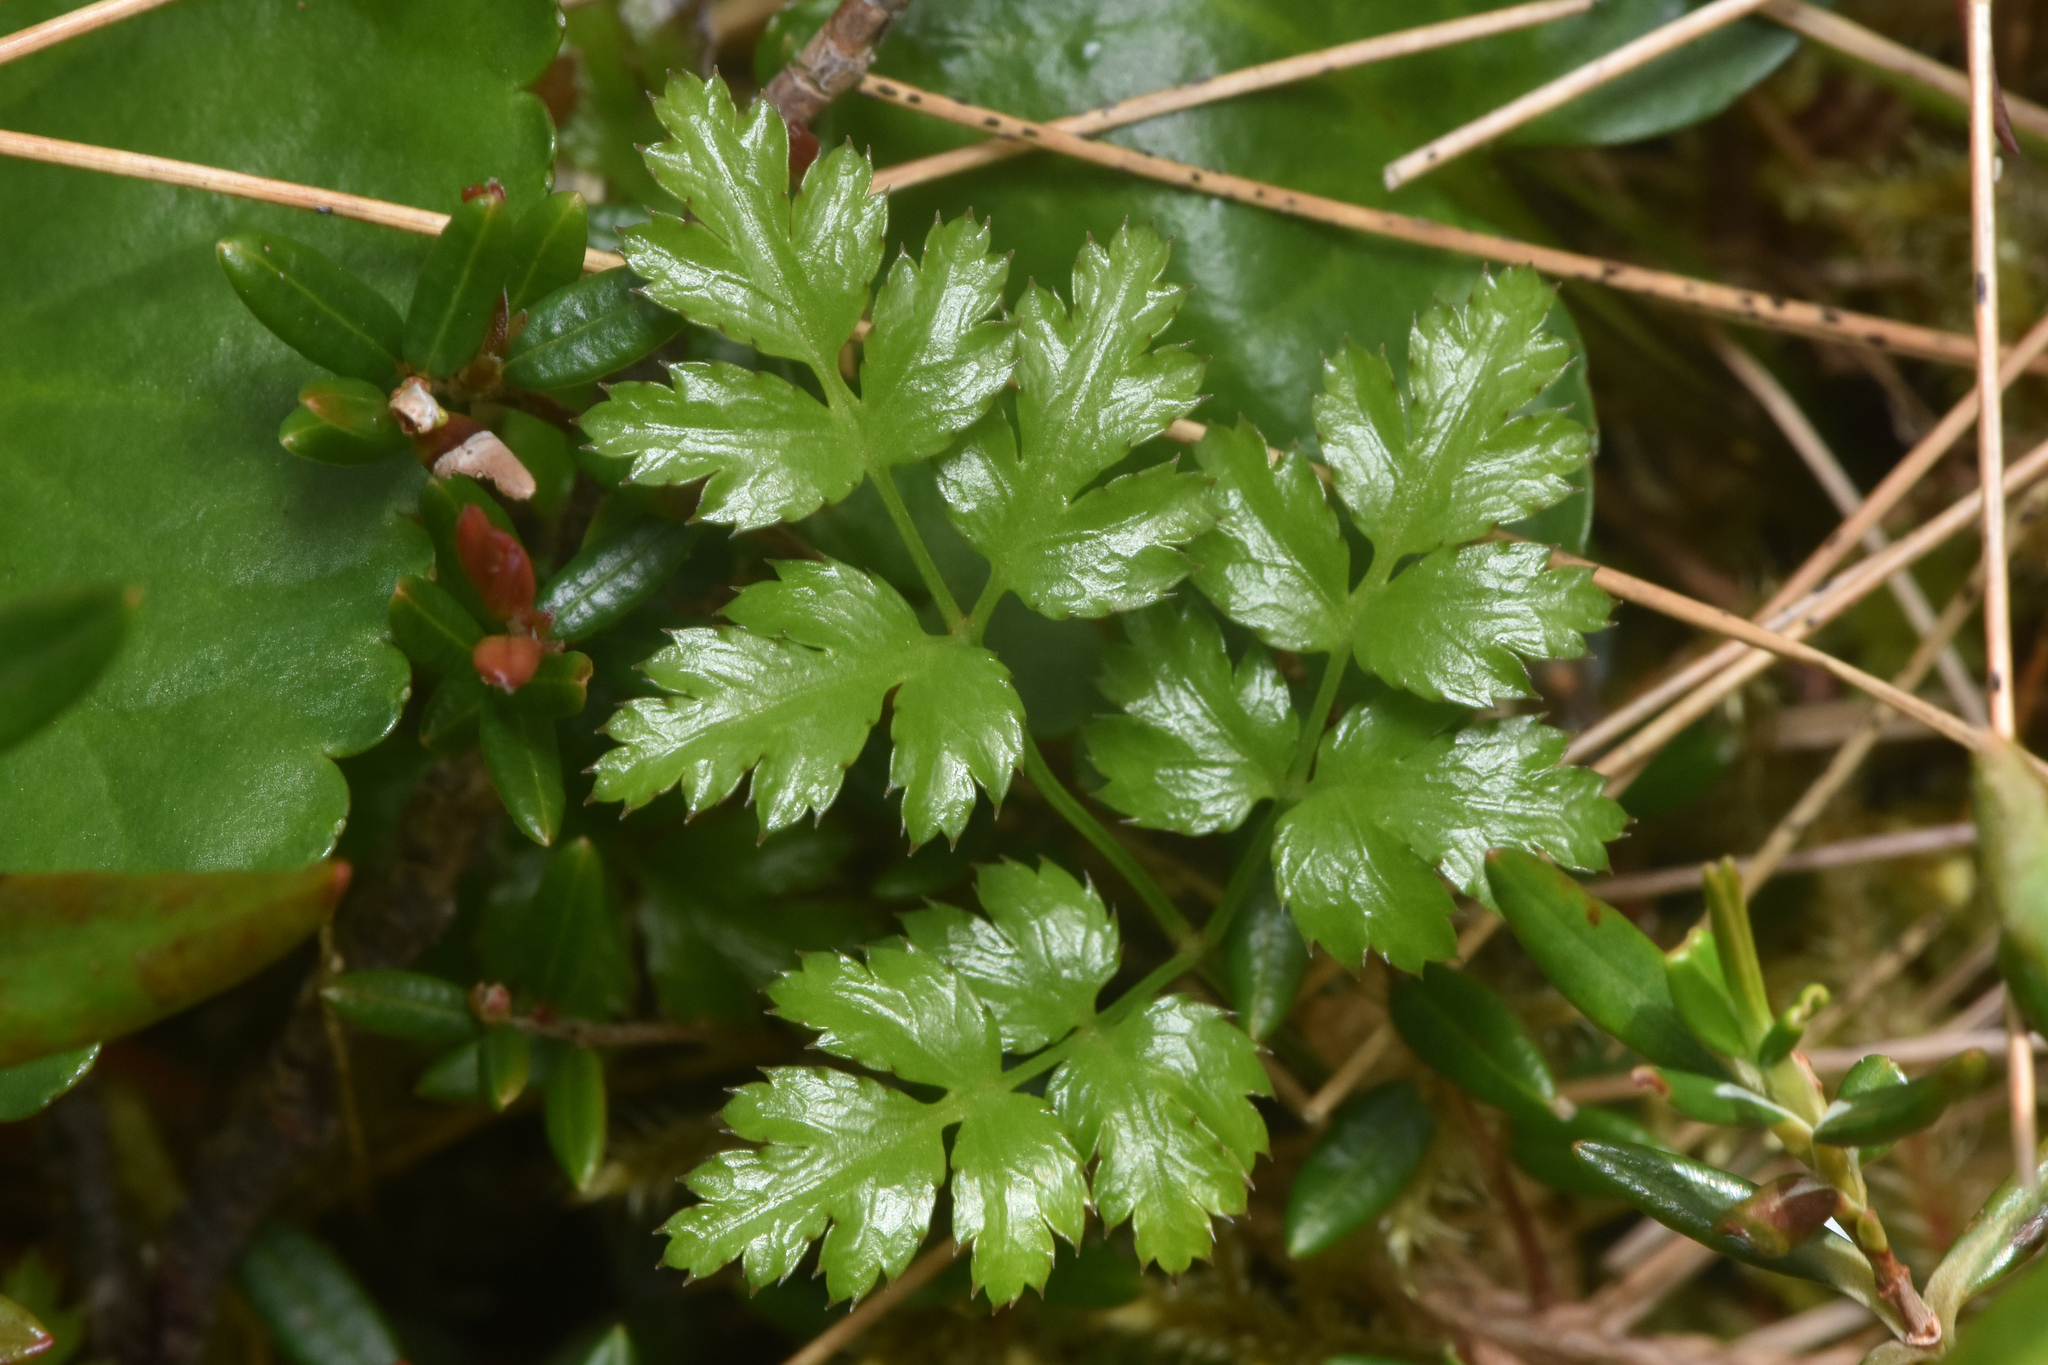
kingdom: Plantae
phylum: Tracheophyta
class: Magnoliopsida
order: Ranunculales
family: Ranunculaceae
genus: Coptis
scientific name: Coptis aspleniifolia
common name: Fern-leaved goldthread
